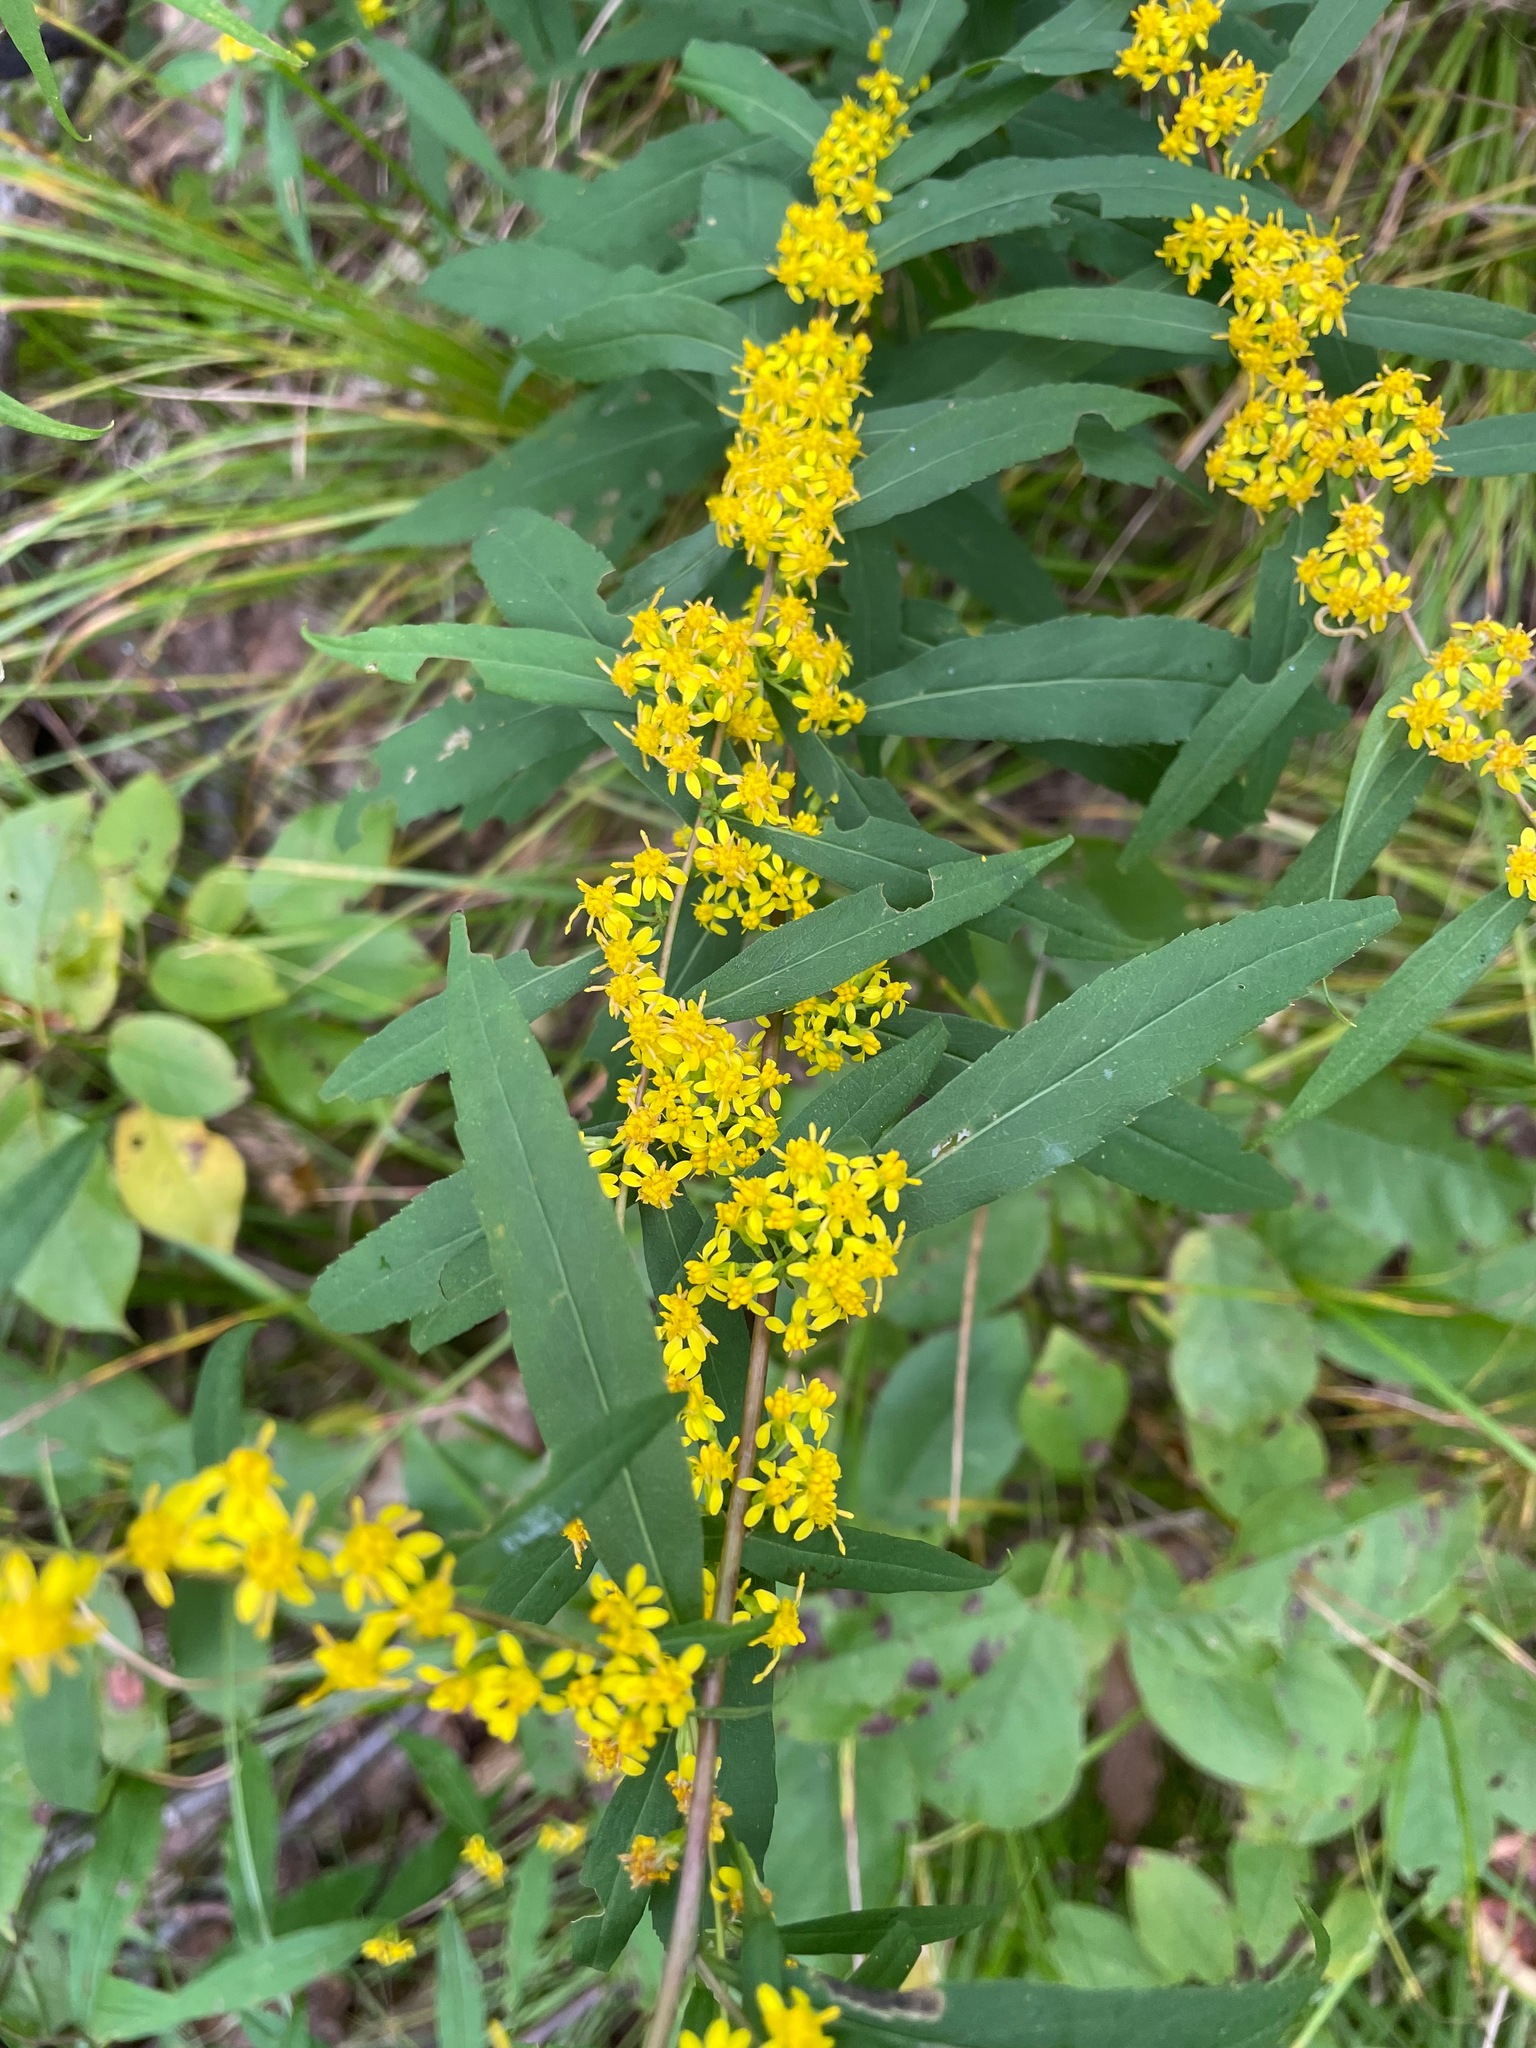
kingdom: Plantae
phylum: Tracheophyta
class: Magnoliopsida
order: Asterales
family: Asteraceae
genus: Solidago
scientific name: Solidago caesia
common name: Woodland goldenrod
